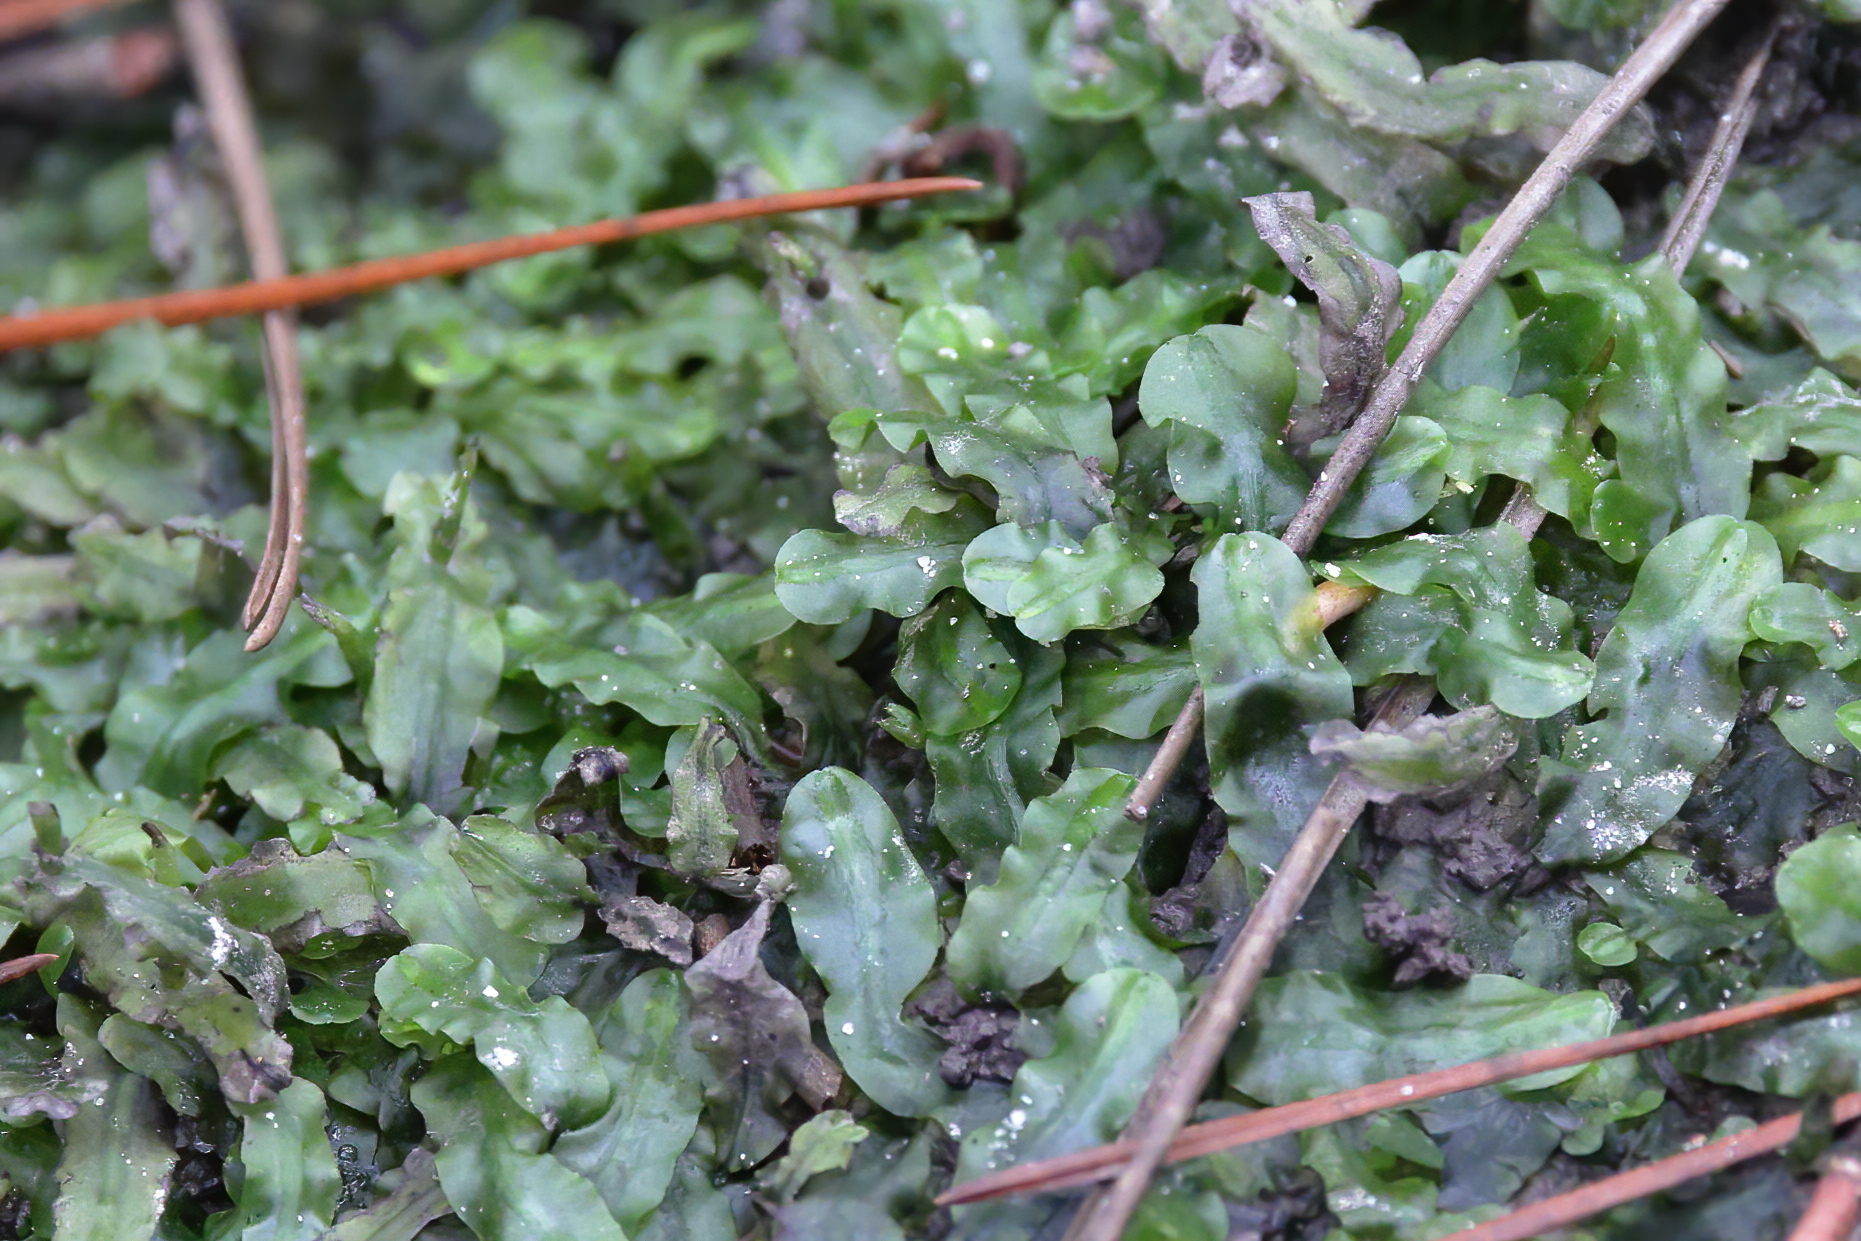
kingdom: Plantae
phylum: Marchantiophyta
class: Jungermanniopsida
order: Pallaviciniales
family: Pallaviciniaceae
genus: Pallavicinia
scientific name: Pallavicinia lyellii
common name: Veilwort
